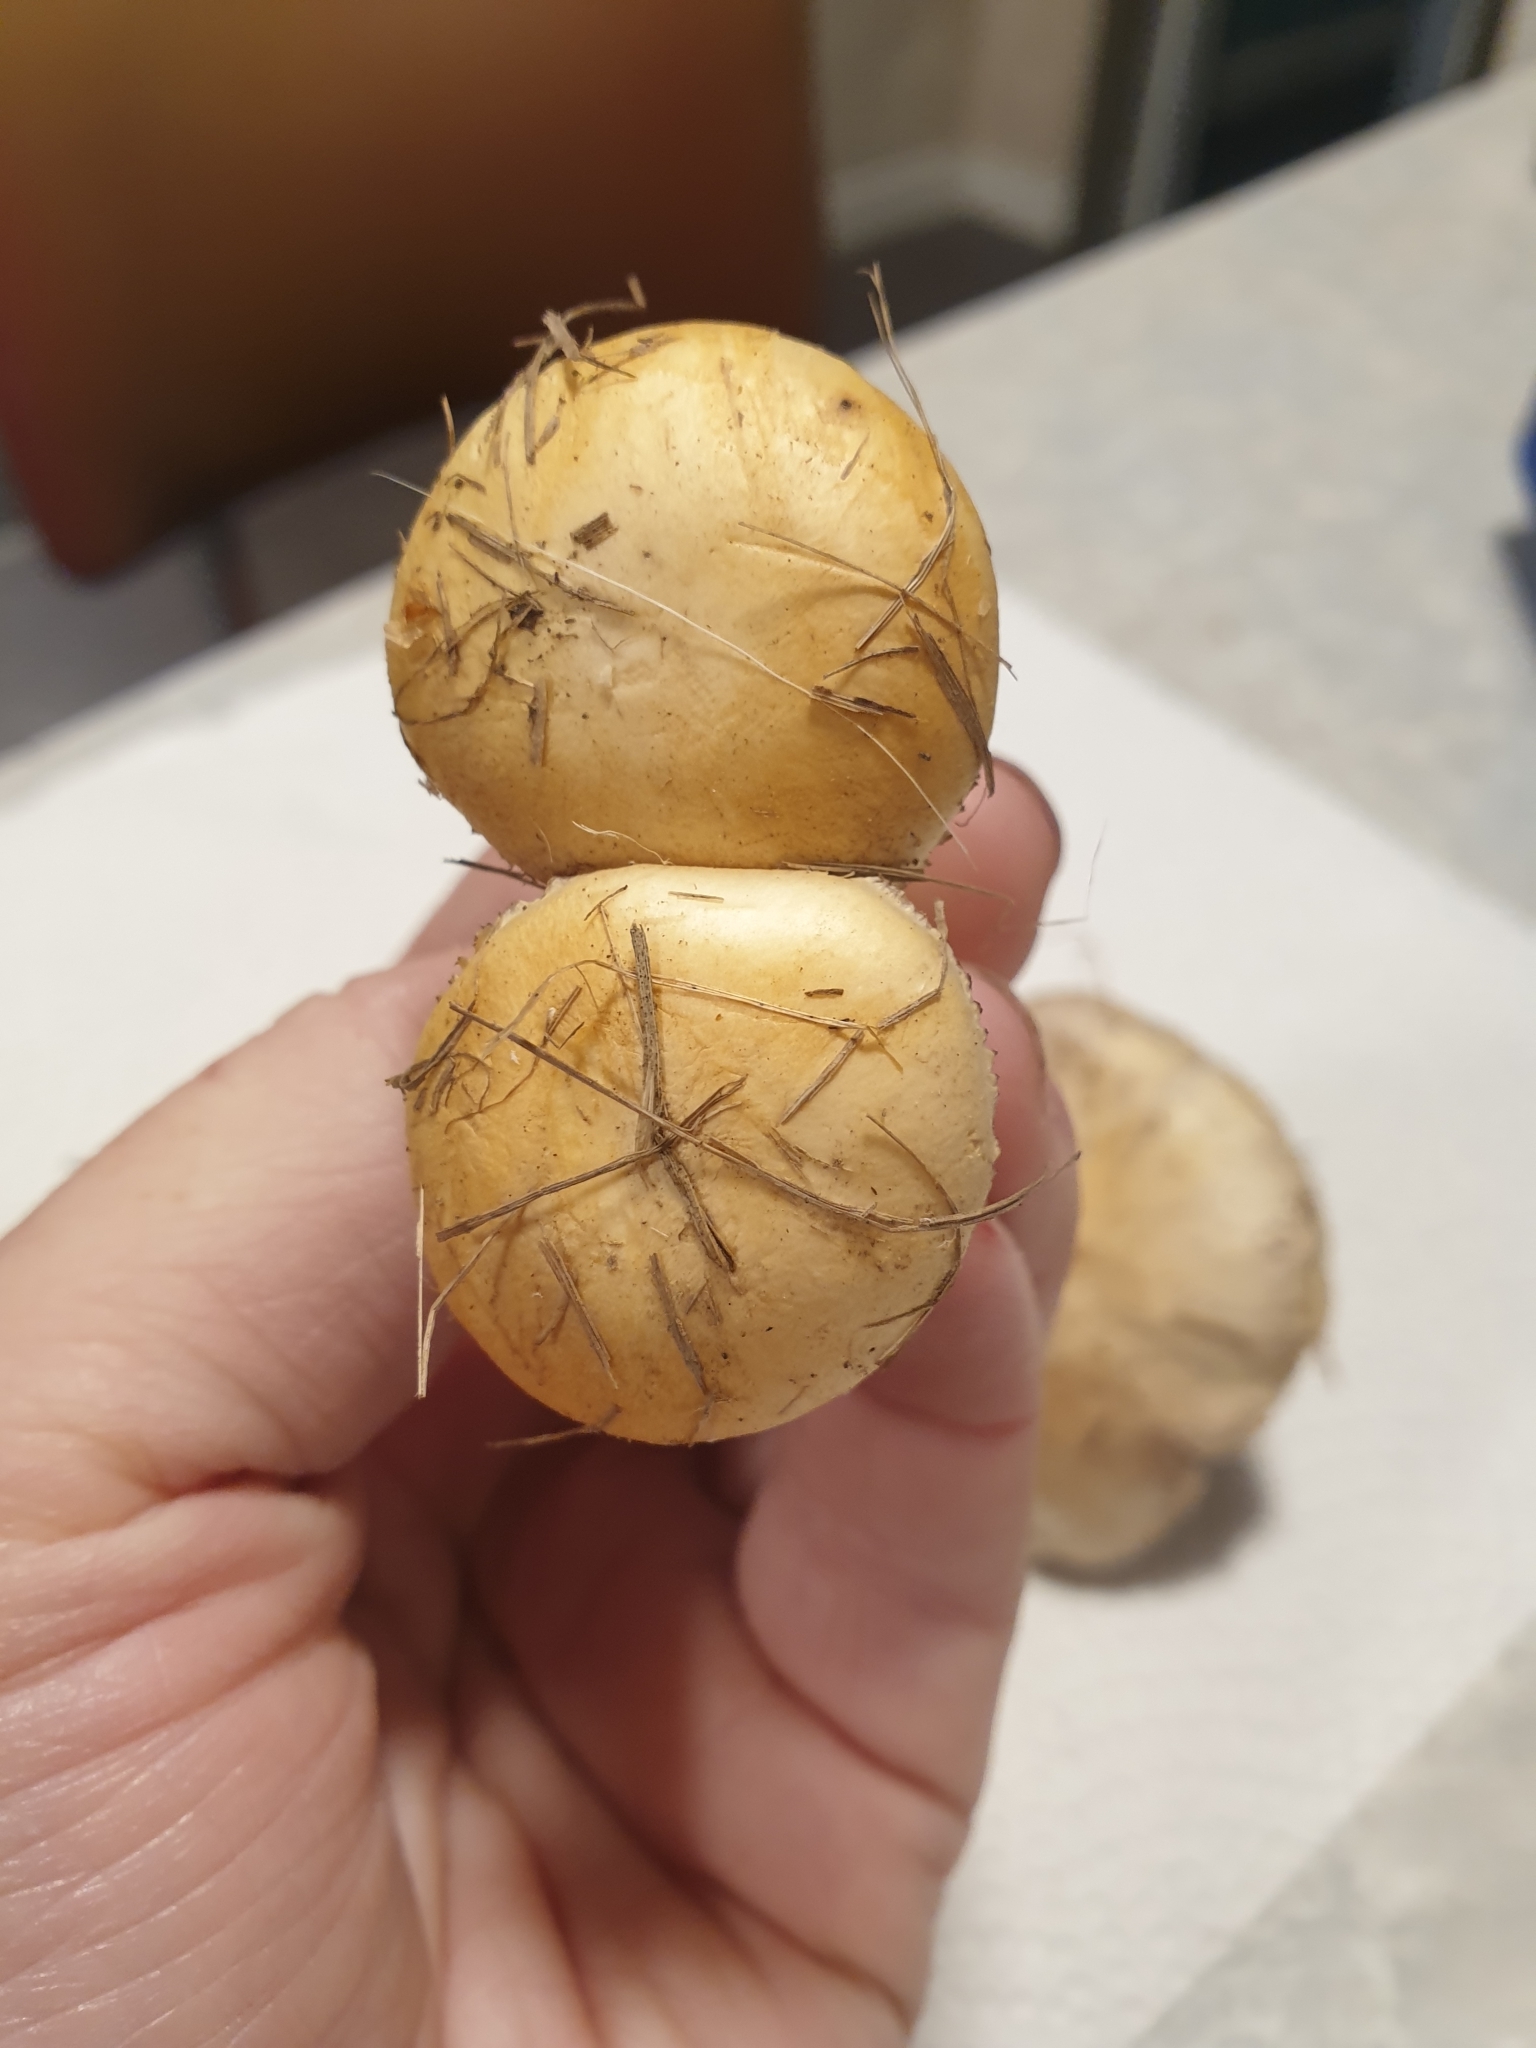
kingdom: Fungi
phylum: Basidiomycota
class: Agaricomycetes
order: Agaricales
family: Hymenogastraceae
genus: Psilocybe
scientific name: Psilocybe coronilla
